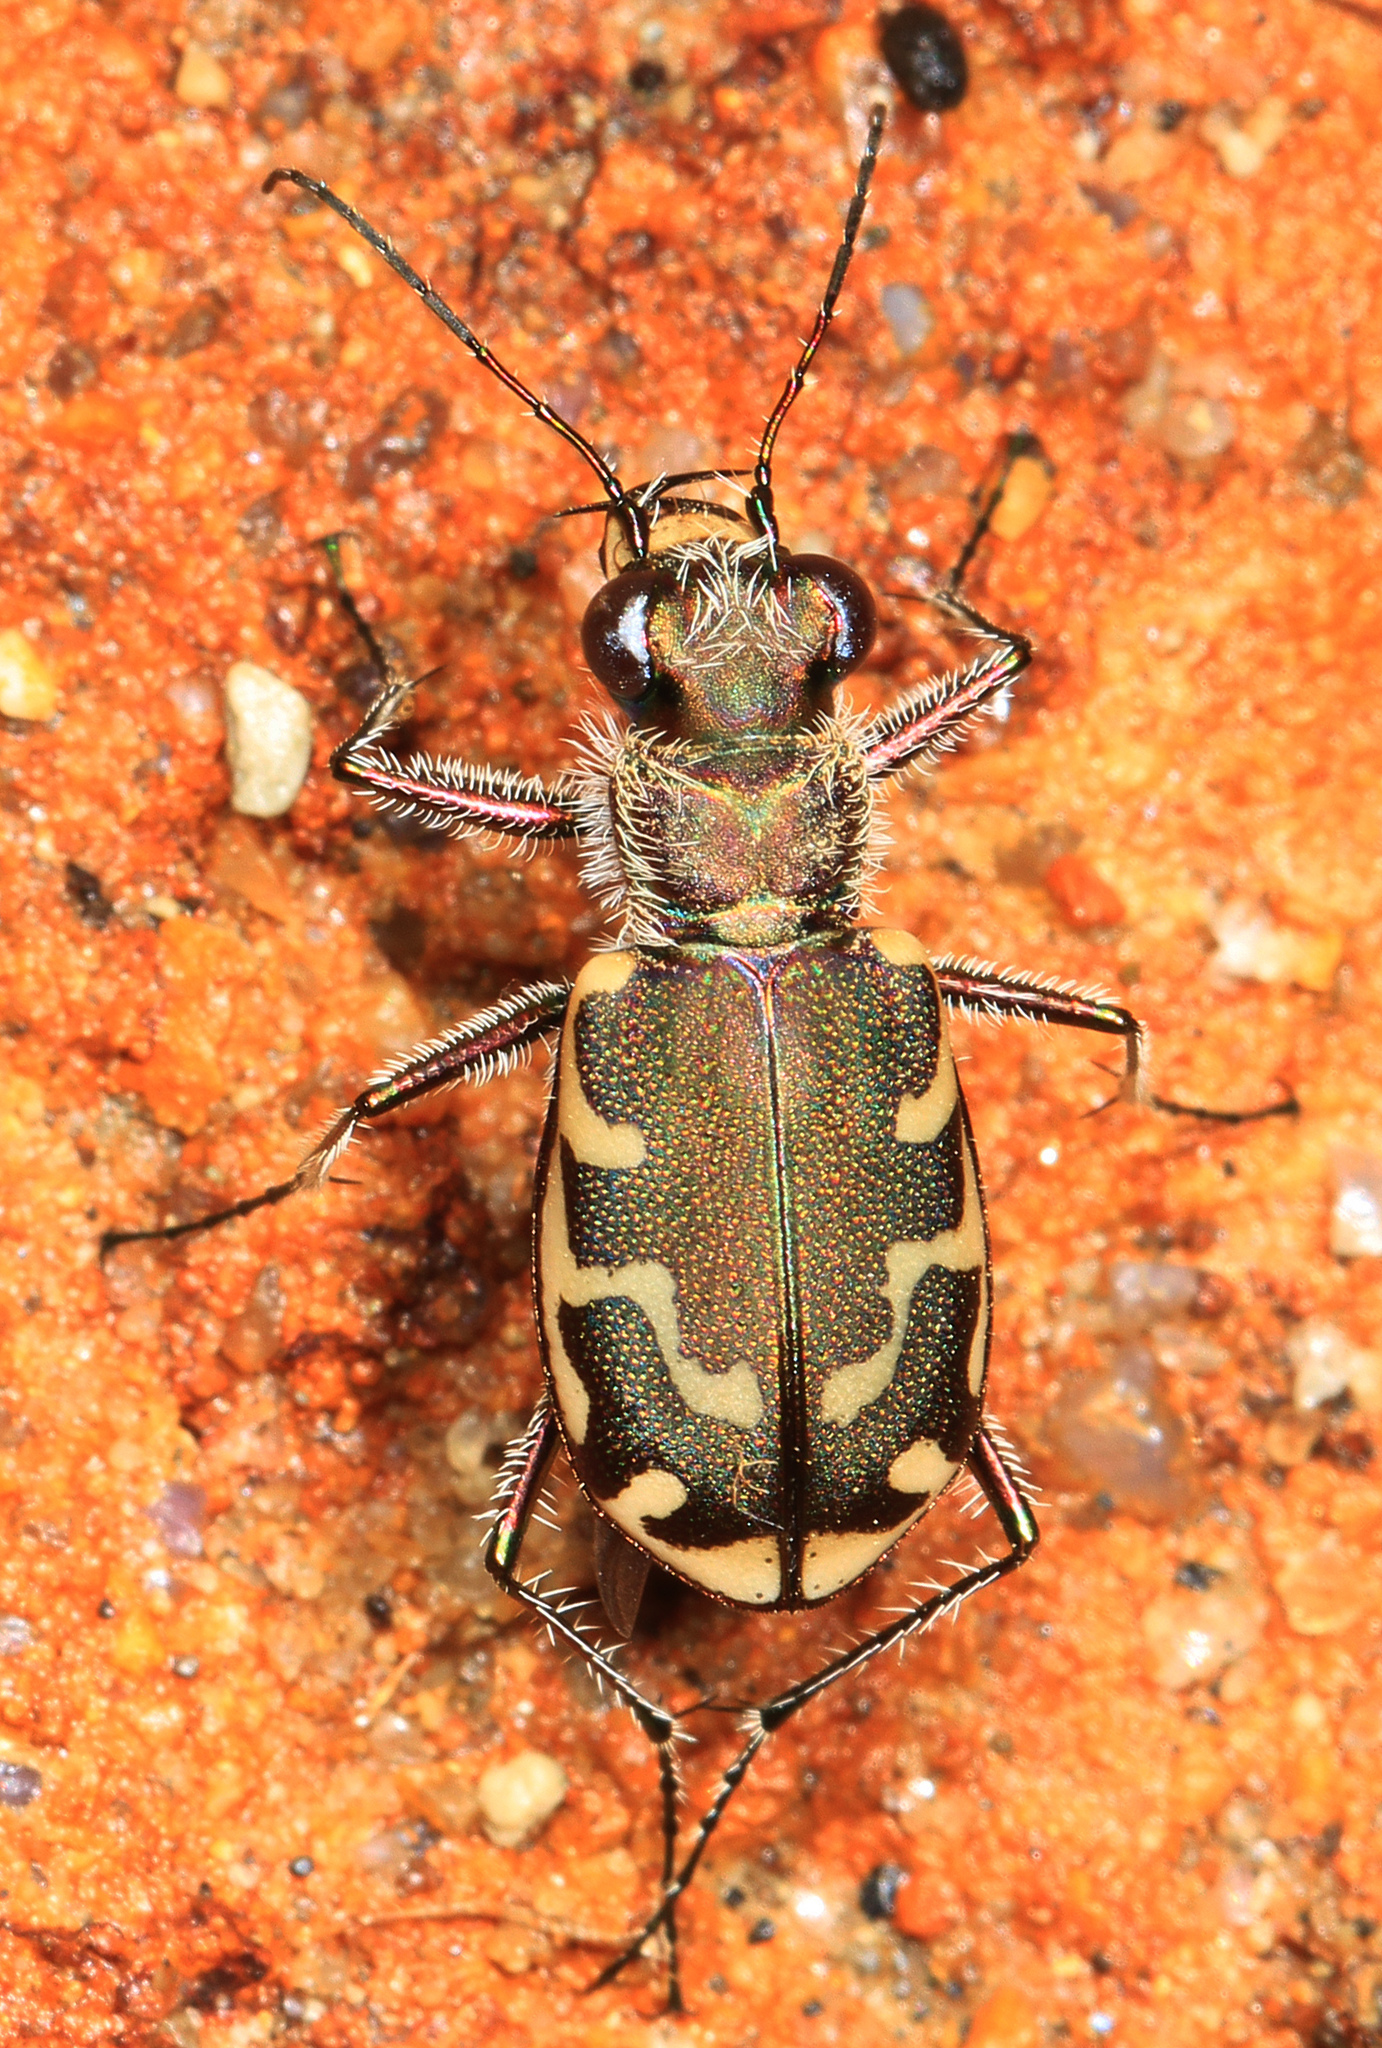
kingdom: Animalia
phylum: Arthropoda
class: Insecta
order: Coleoptera
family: Carabidae
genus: Cicindela
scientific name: Cicindela repanda
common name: Bronzed tiger beetle
